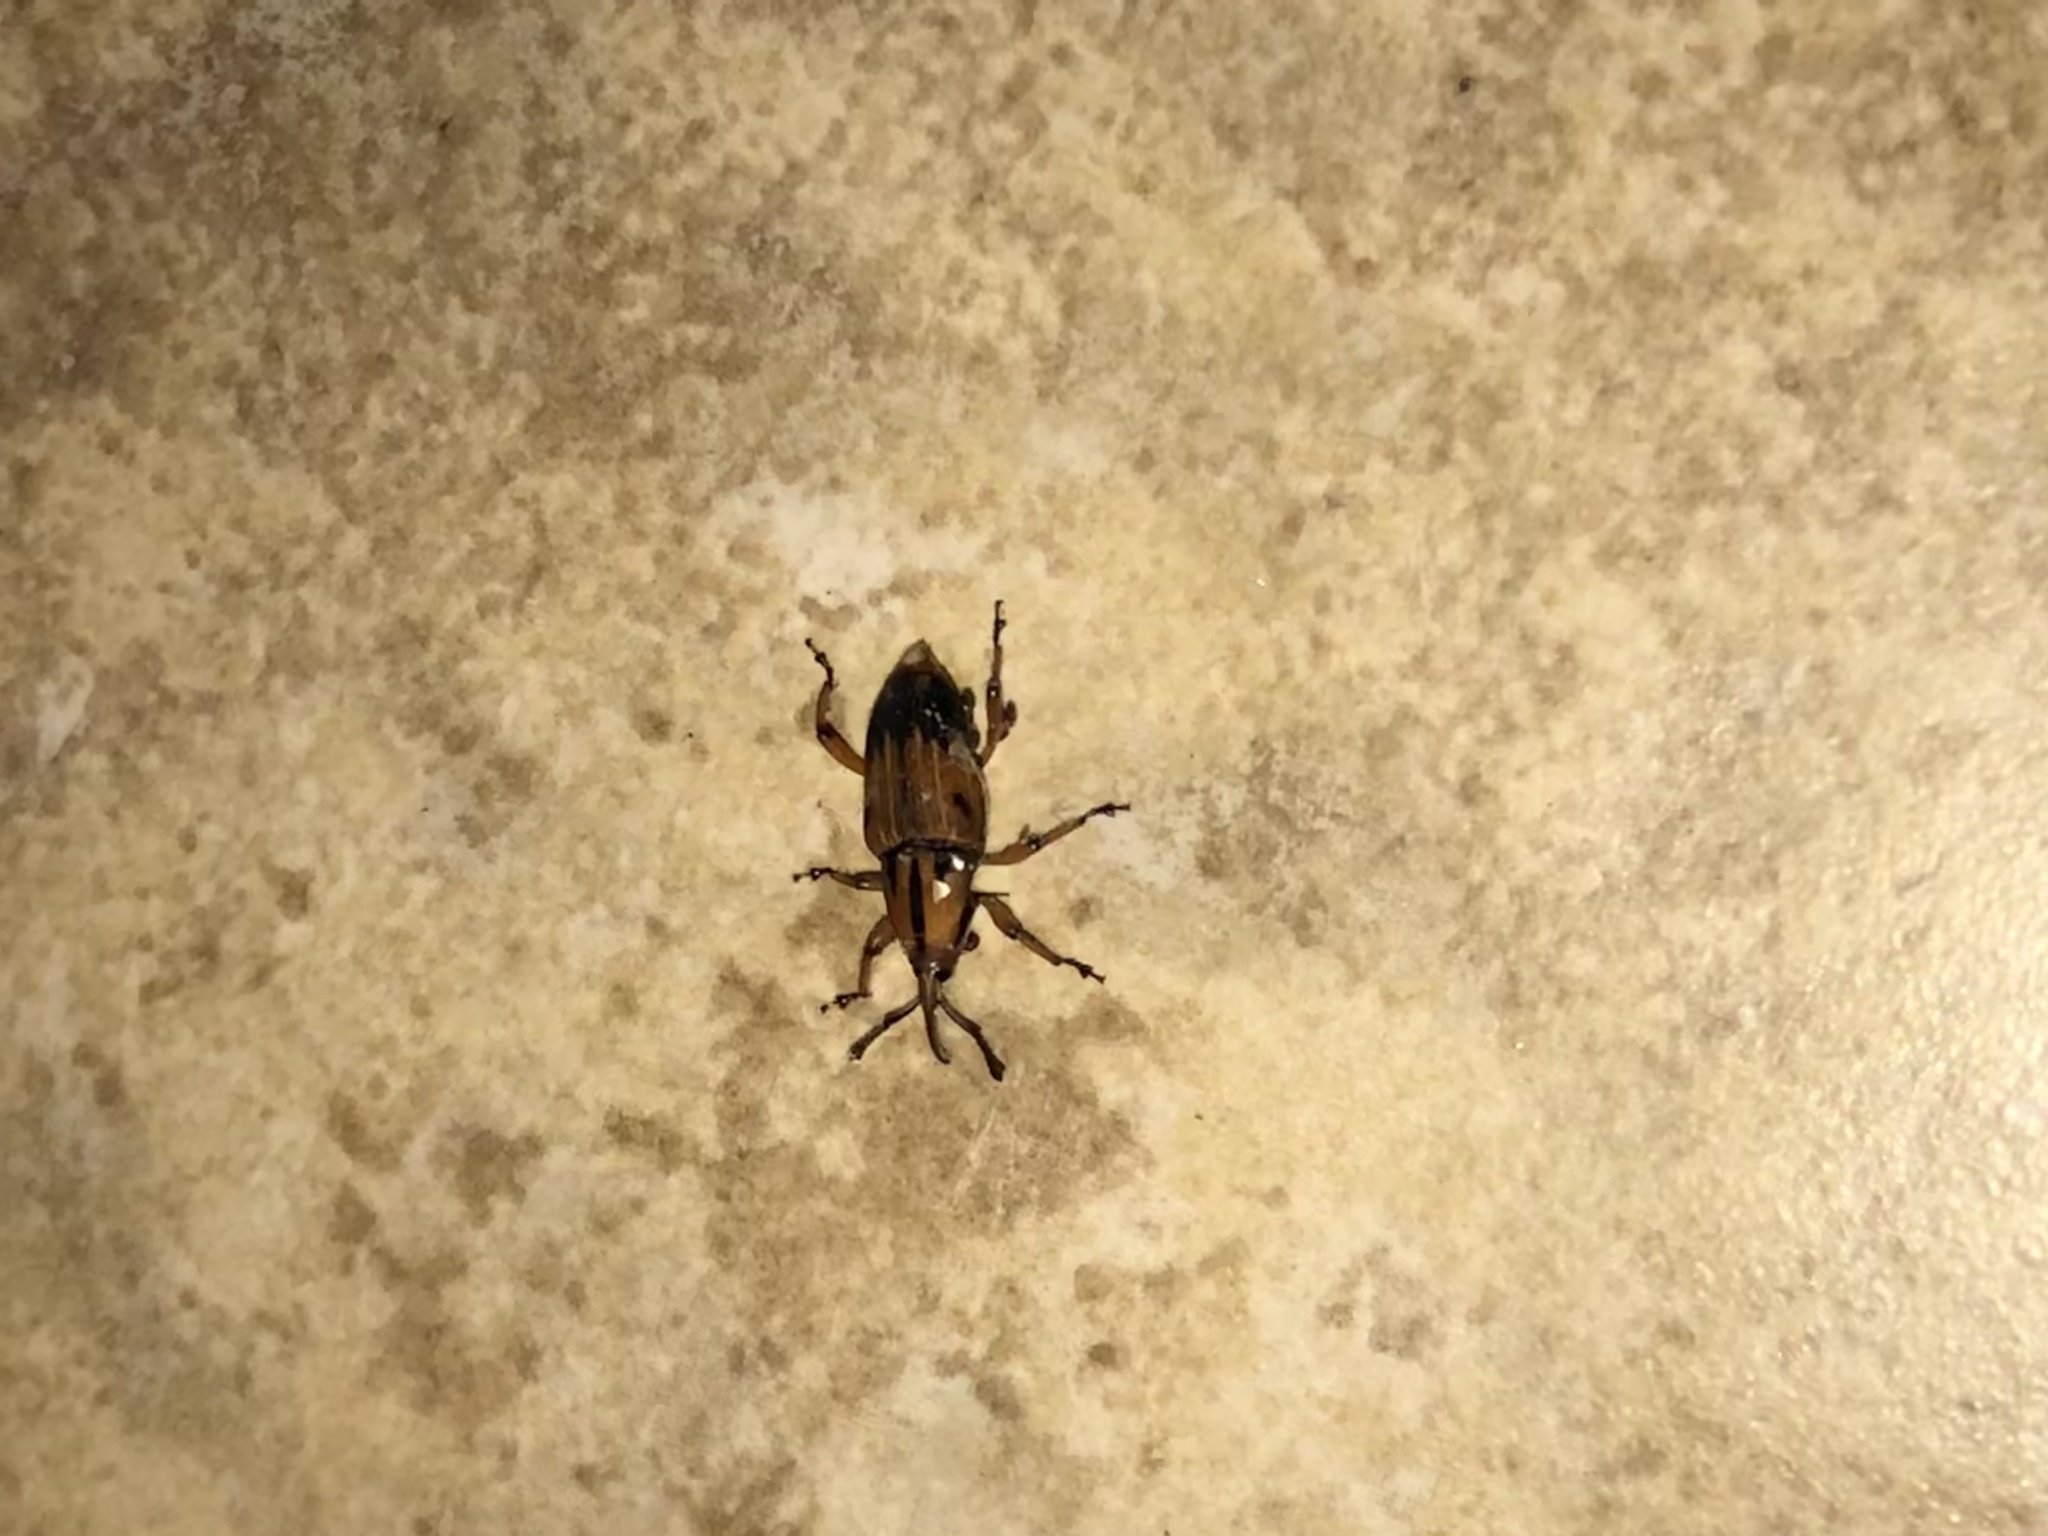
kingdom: Animalia
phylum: Arthropoda
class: Insecta
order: Coleoptera
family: Dryophthoridae
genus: Metamasius
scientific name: Metamasius hemipterus
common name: Weevil
